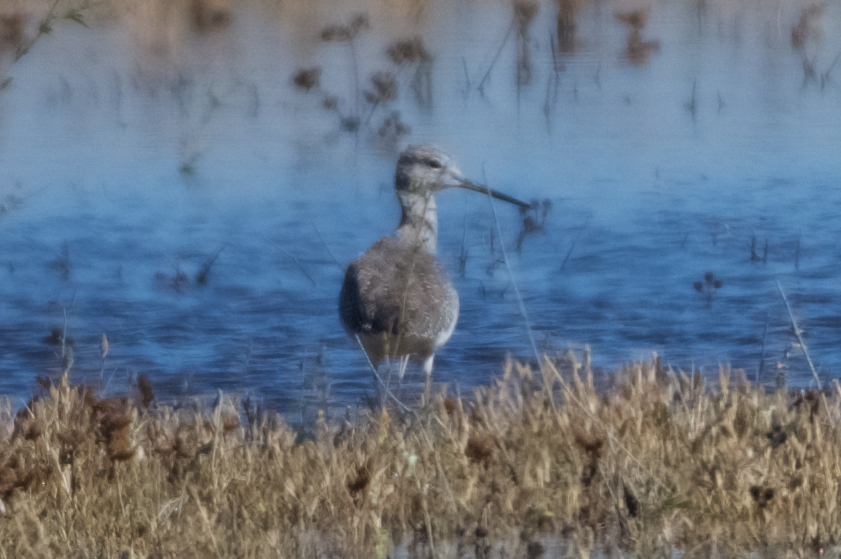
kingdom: Animalia
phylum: Chordata
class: Aves
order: Charadriiformes
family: Scolopacidae
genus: Tringa
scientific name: Tringa melanoleuca
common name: Greater yellowlegs
